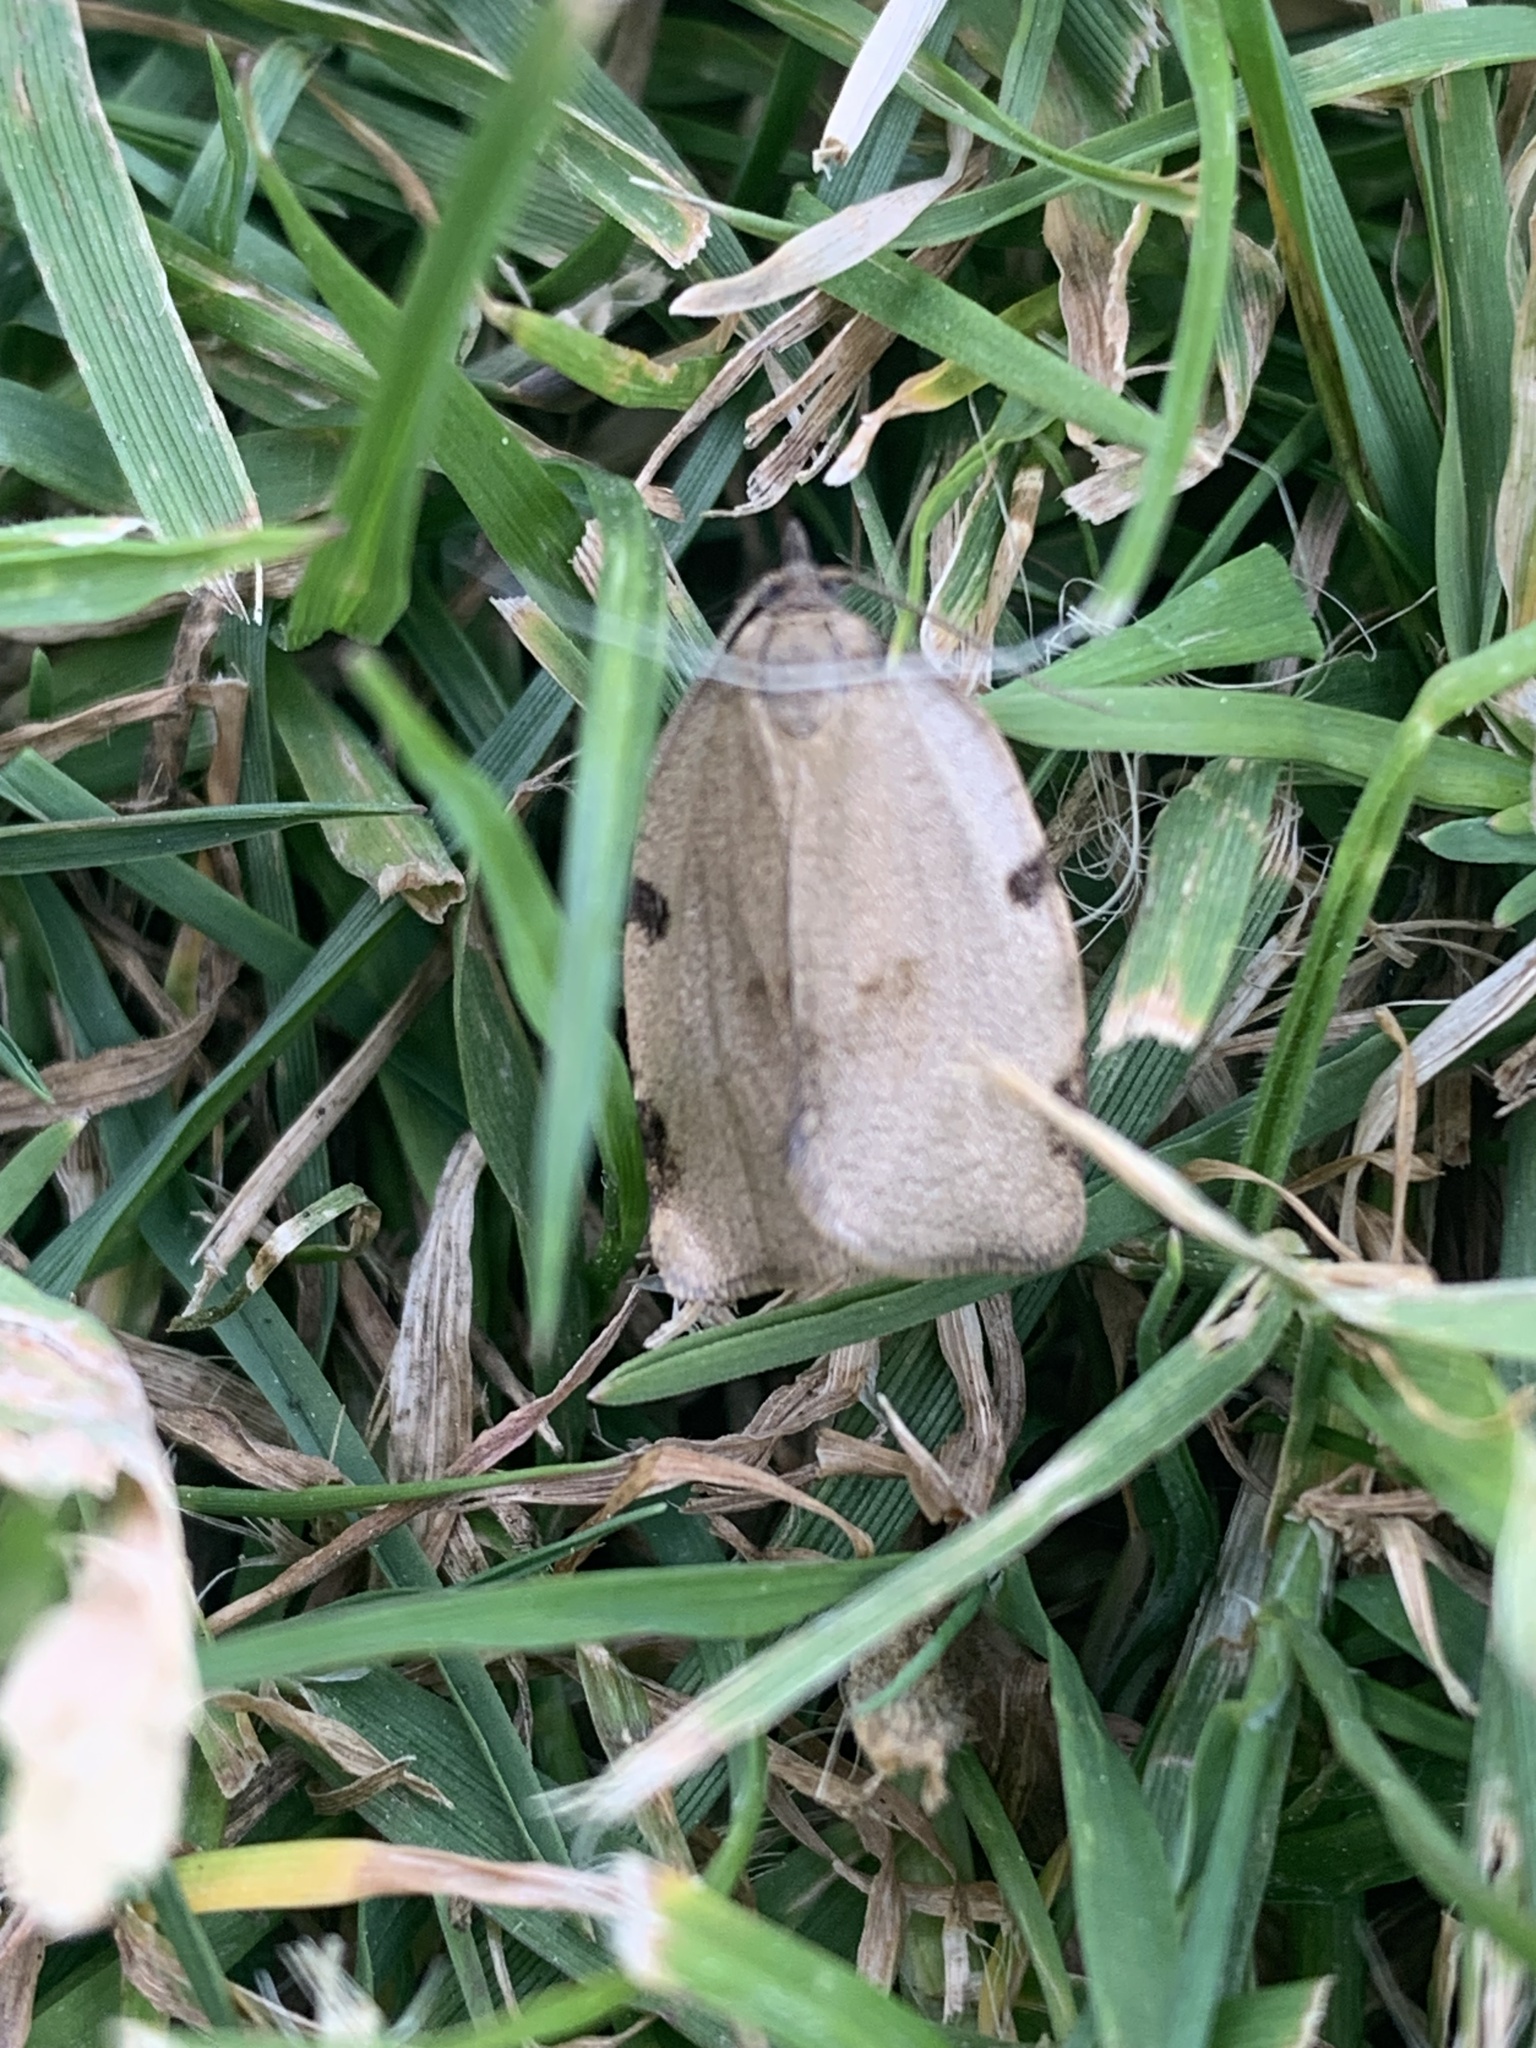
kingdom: Animalia
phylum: Arthropoda
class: Insecta
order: Lepidoptera
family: Tortricidae
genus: Lozotaenia
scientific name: Lozotaenia forsterana
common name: Large ivy twist
